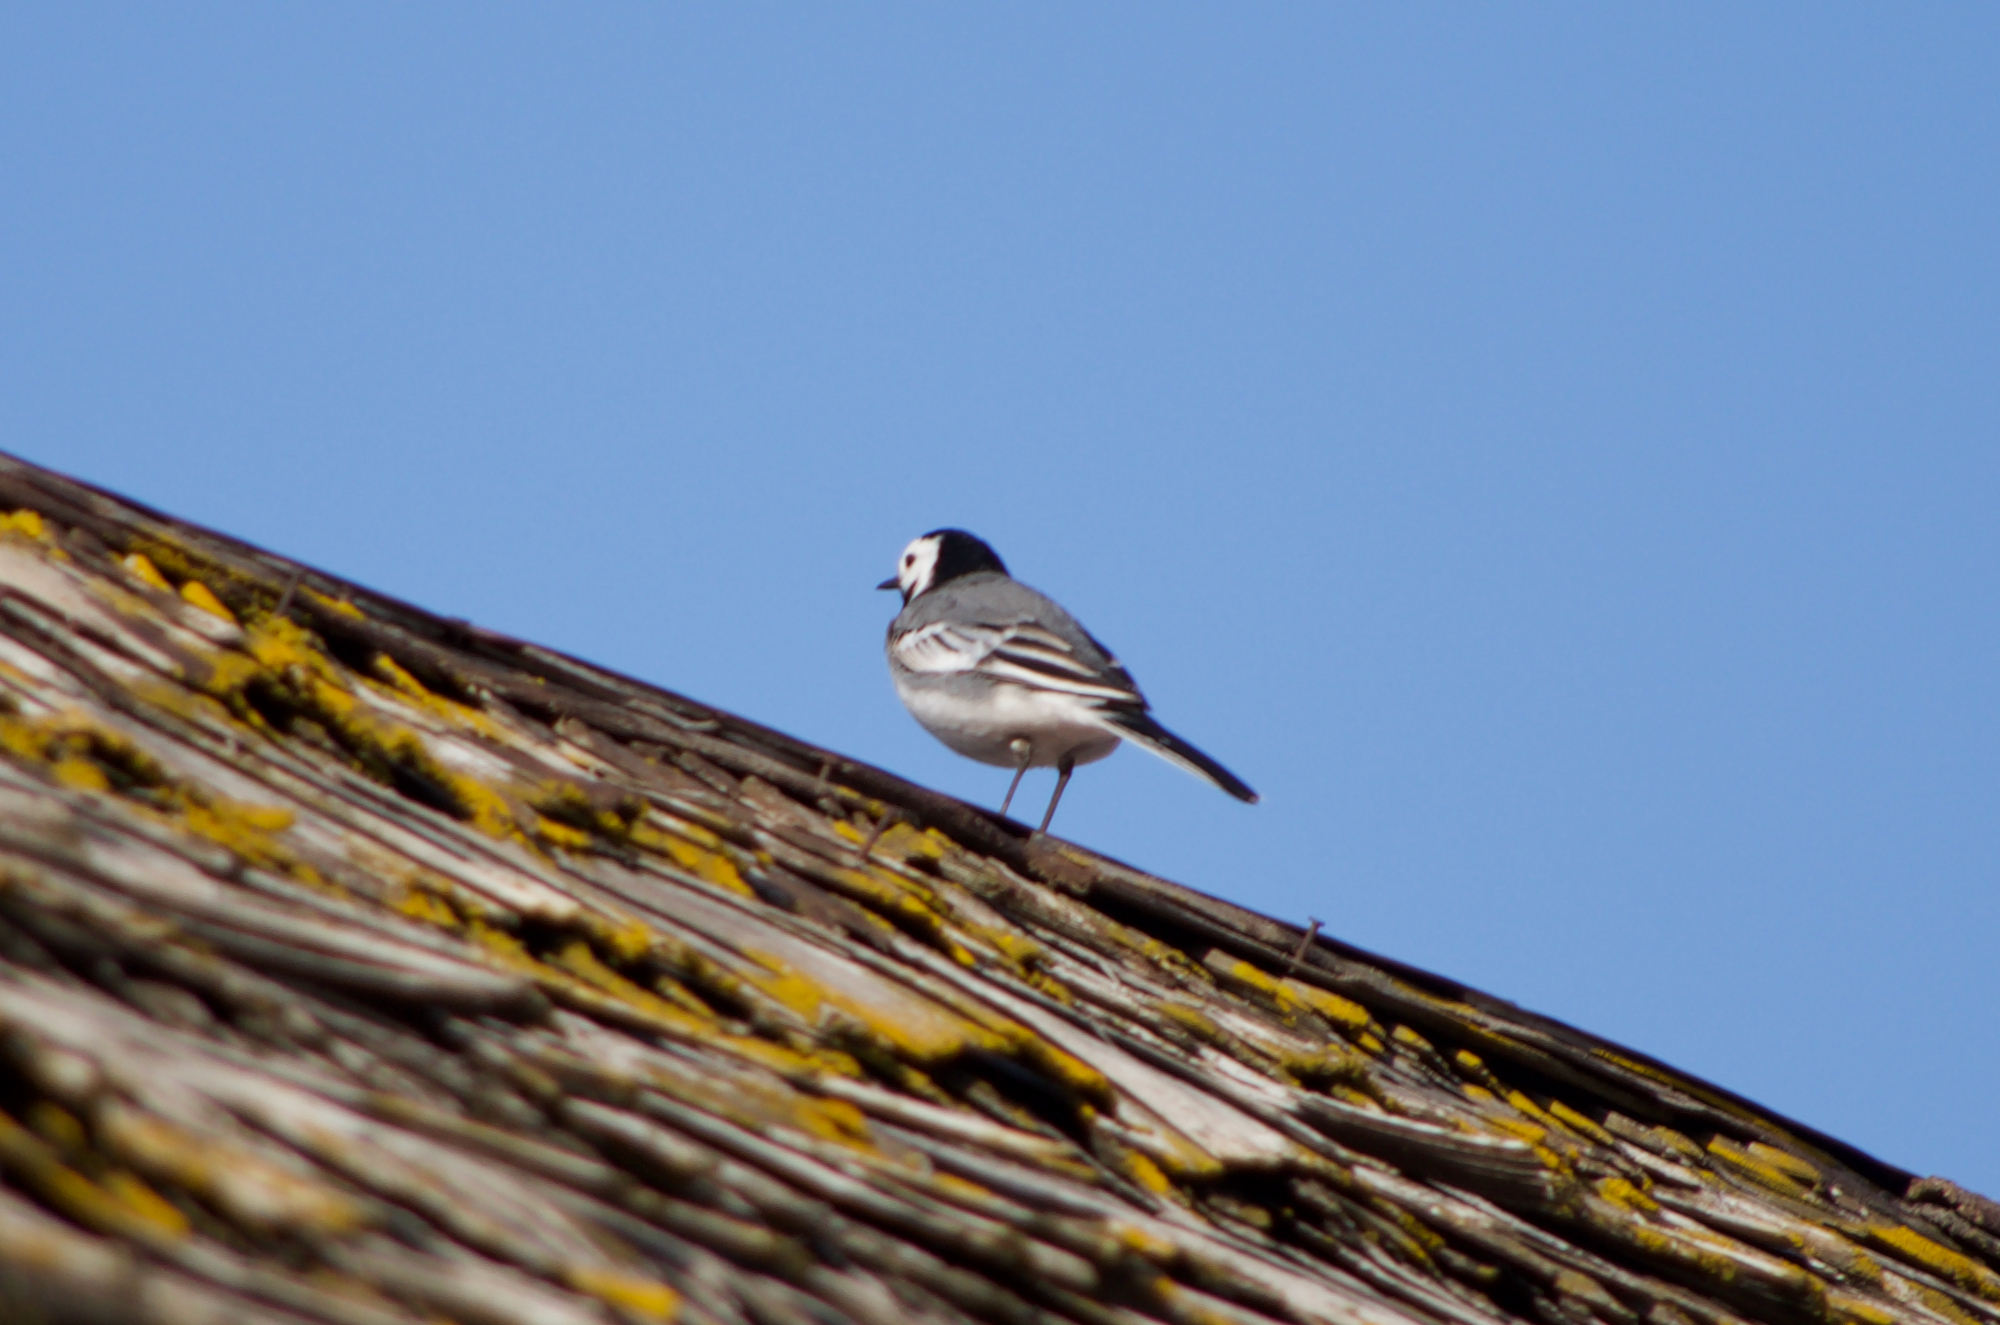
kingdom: Animalia
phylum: Chordata
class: Aves
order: Passeriformes
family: Motacillidae
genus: Motacilla
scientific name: Motacilla alba
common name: White wagtail
